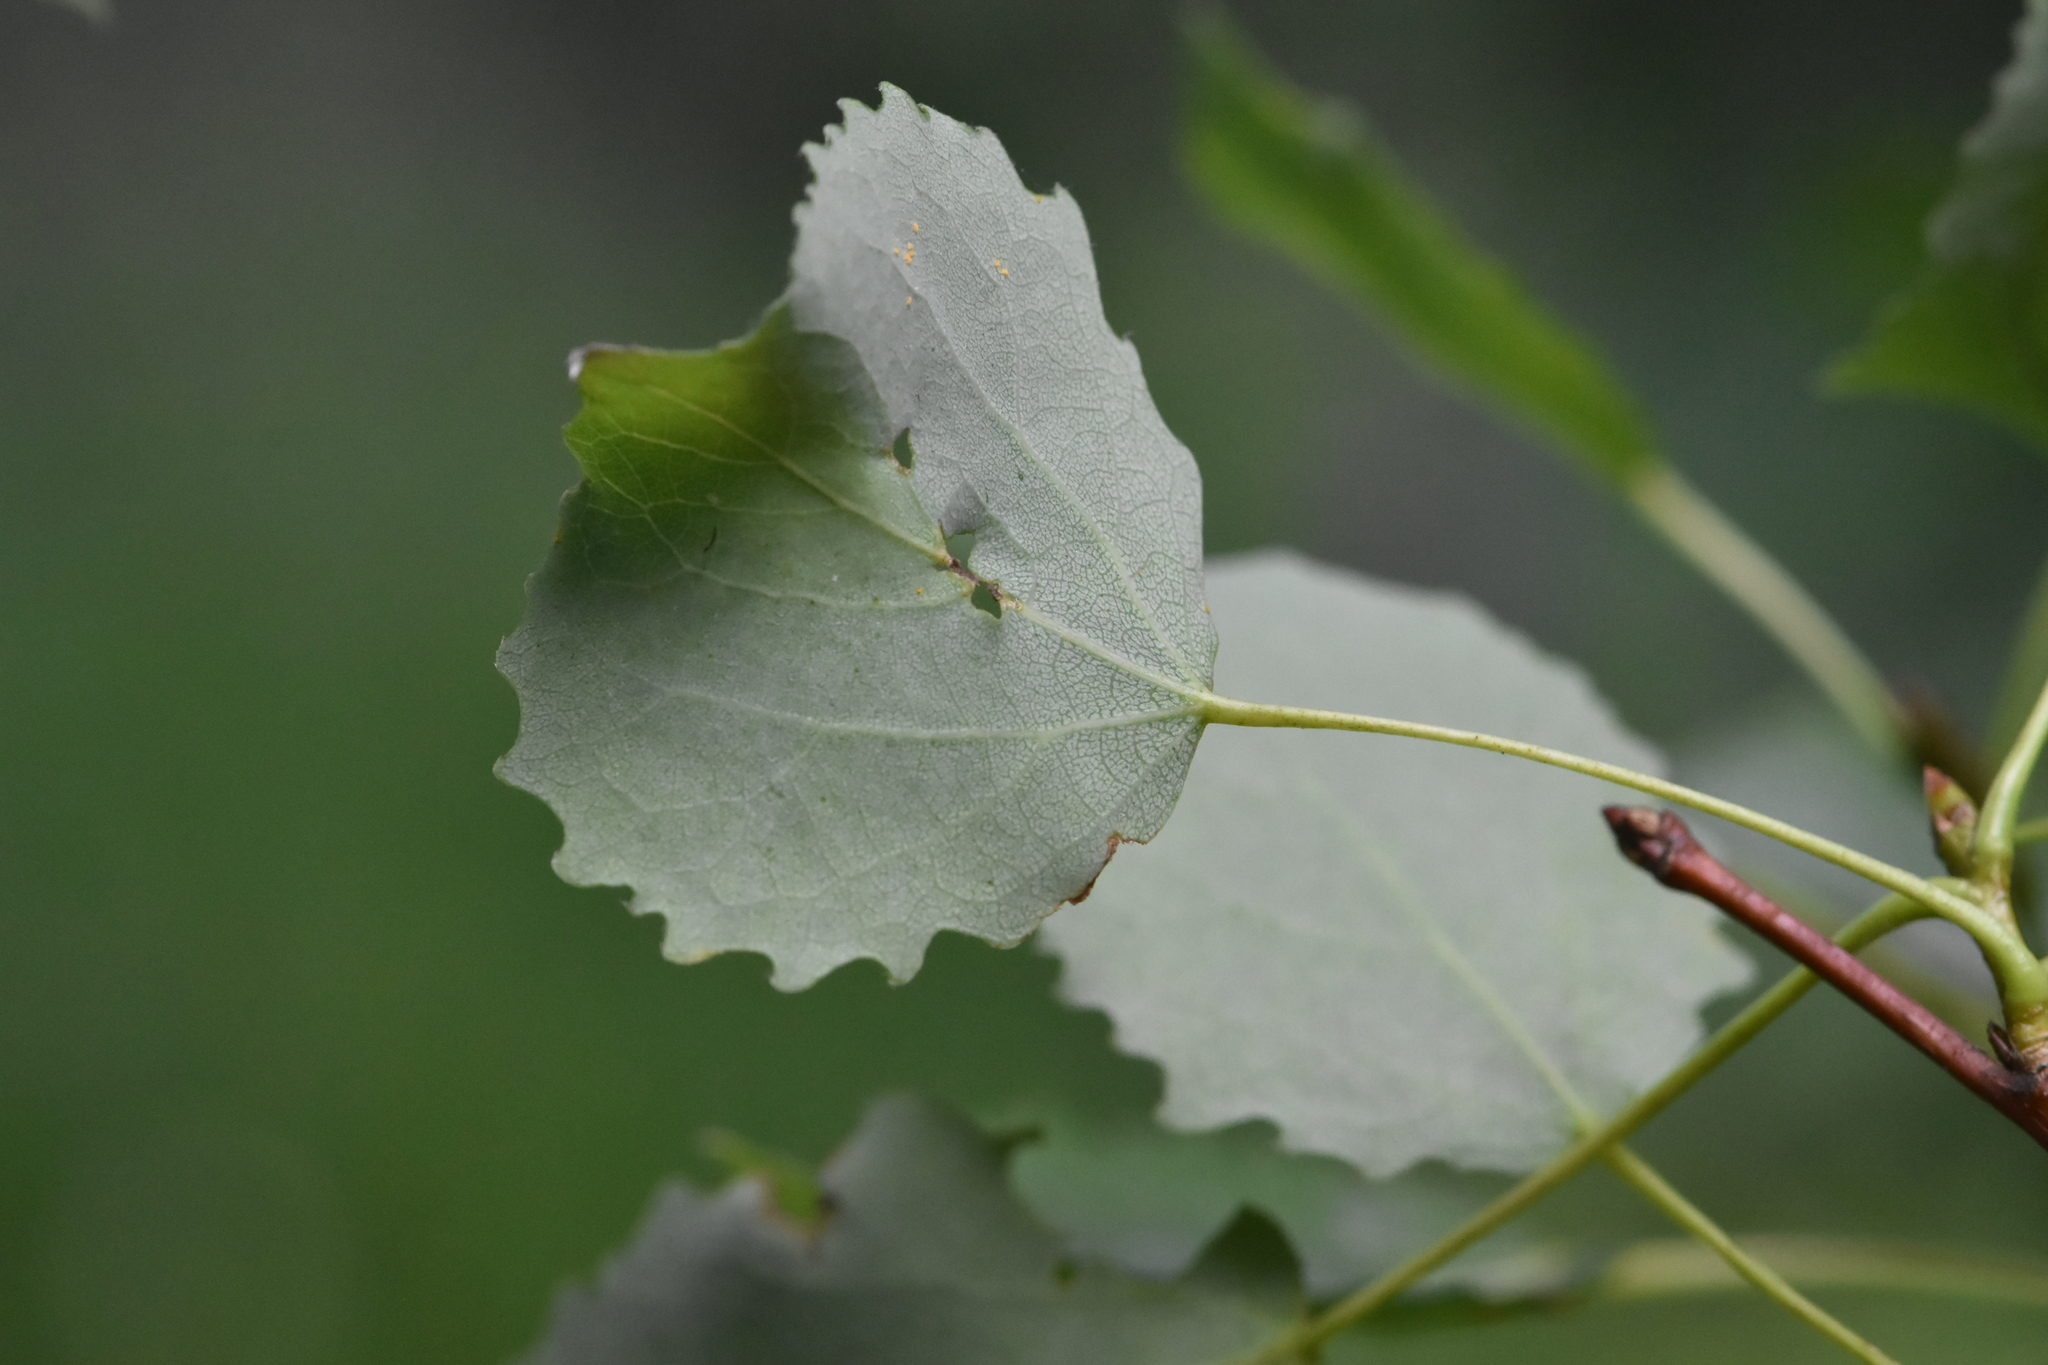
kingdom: Plantae
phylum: Tracheophyta
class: Magnoliopsida
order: Malpighiales
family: Salicaceae
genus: Populus
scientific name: Populus tremula
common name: European aspen
